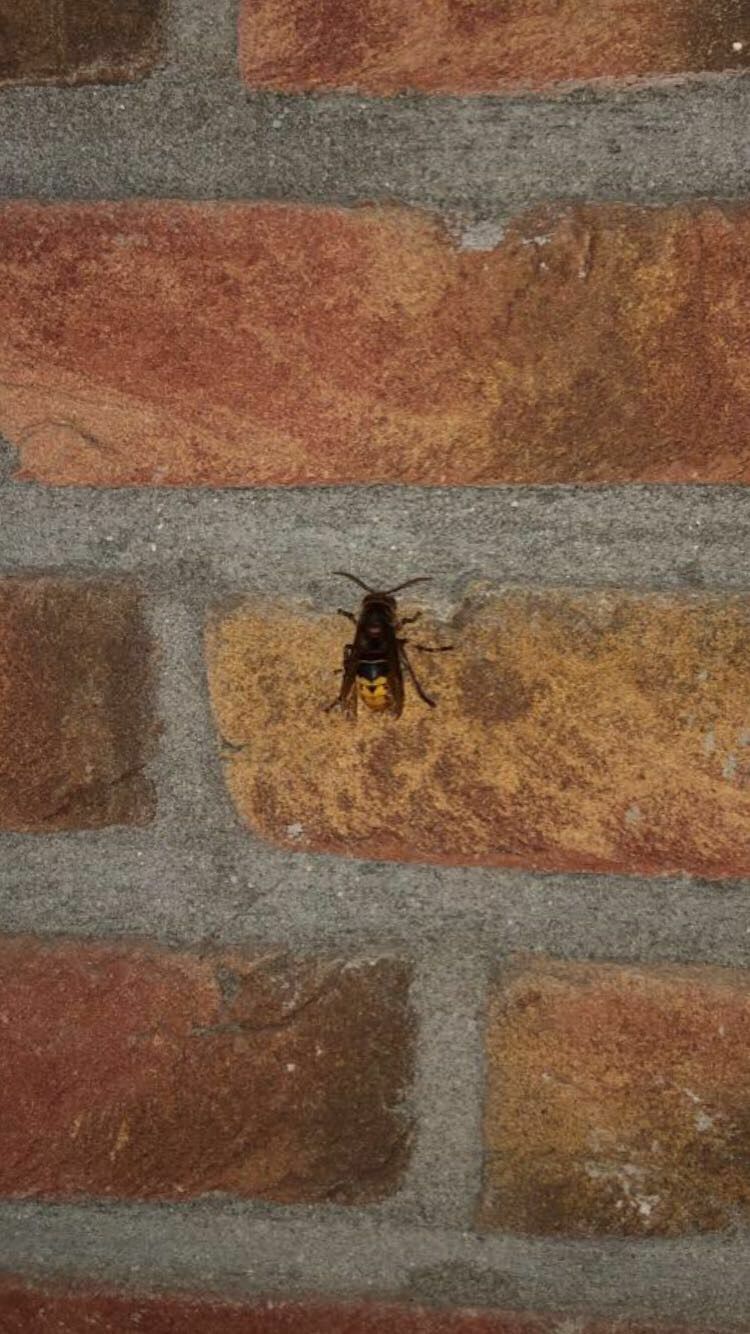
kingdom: Animalia
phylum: Arthropoda
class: Insecta
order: Hymenoptera
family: Vespidae
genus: Vespa
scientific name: Vespa crabro
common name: Hornet
